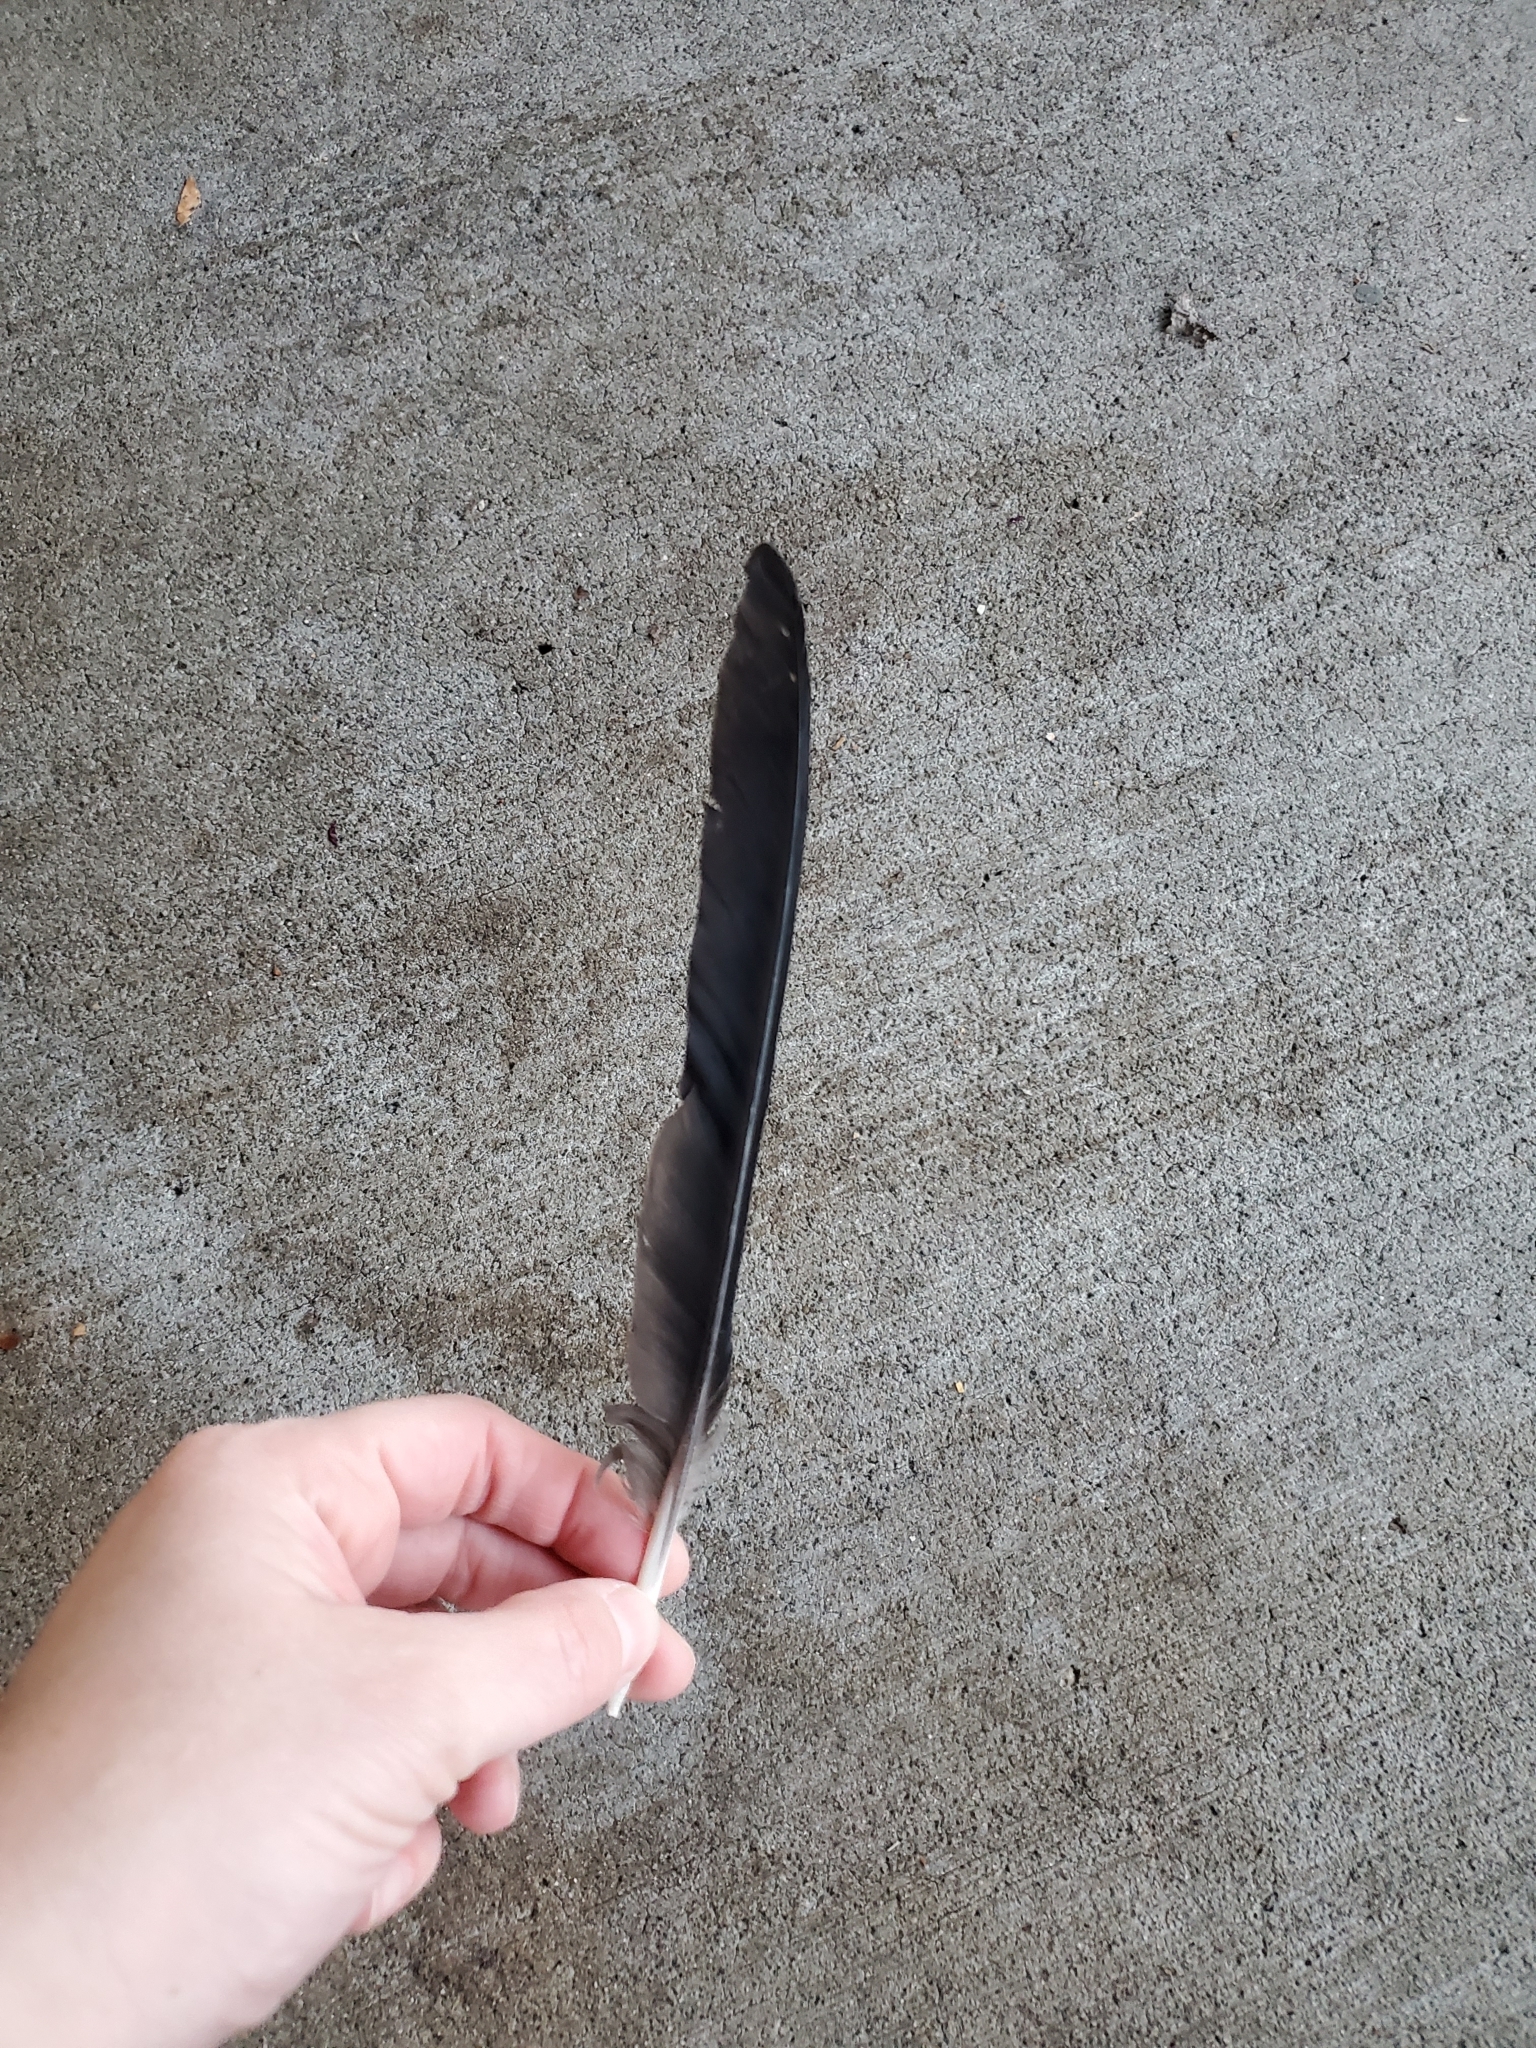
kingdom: Animalia
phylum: Chordata
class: Aves
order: Passeriformes
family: Corvidae
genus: Corvus
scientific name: Corvus brachyrhynchos
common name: American crow
